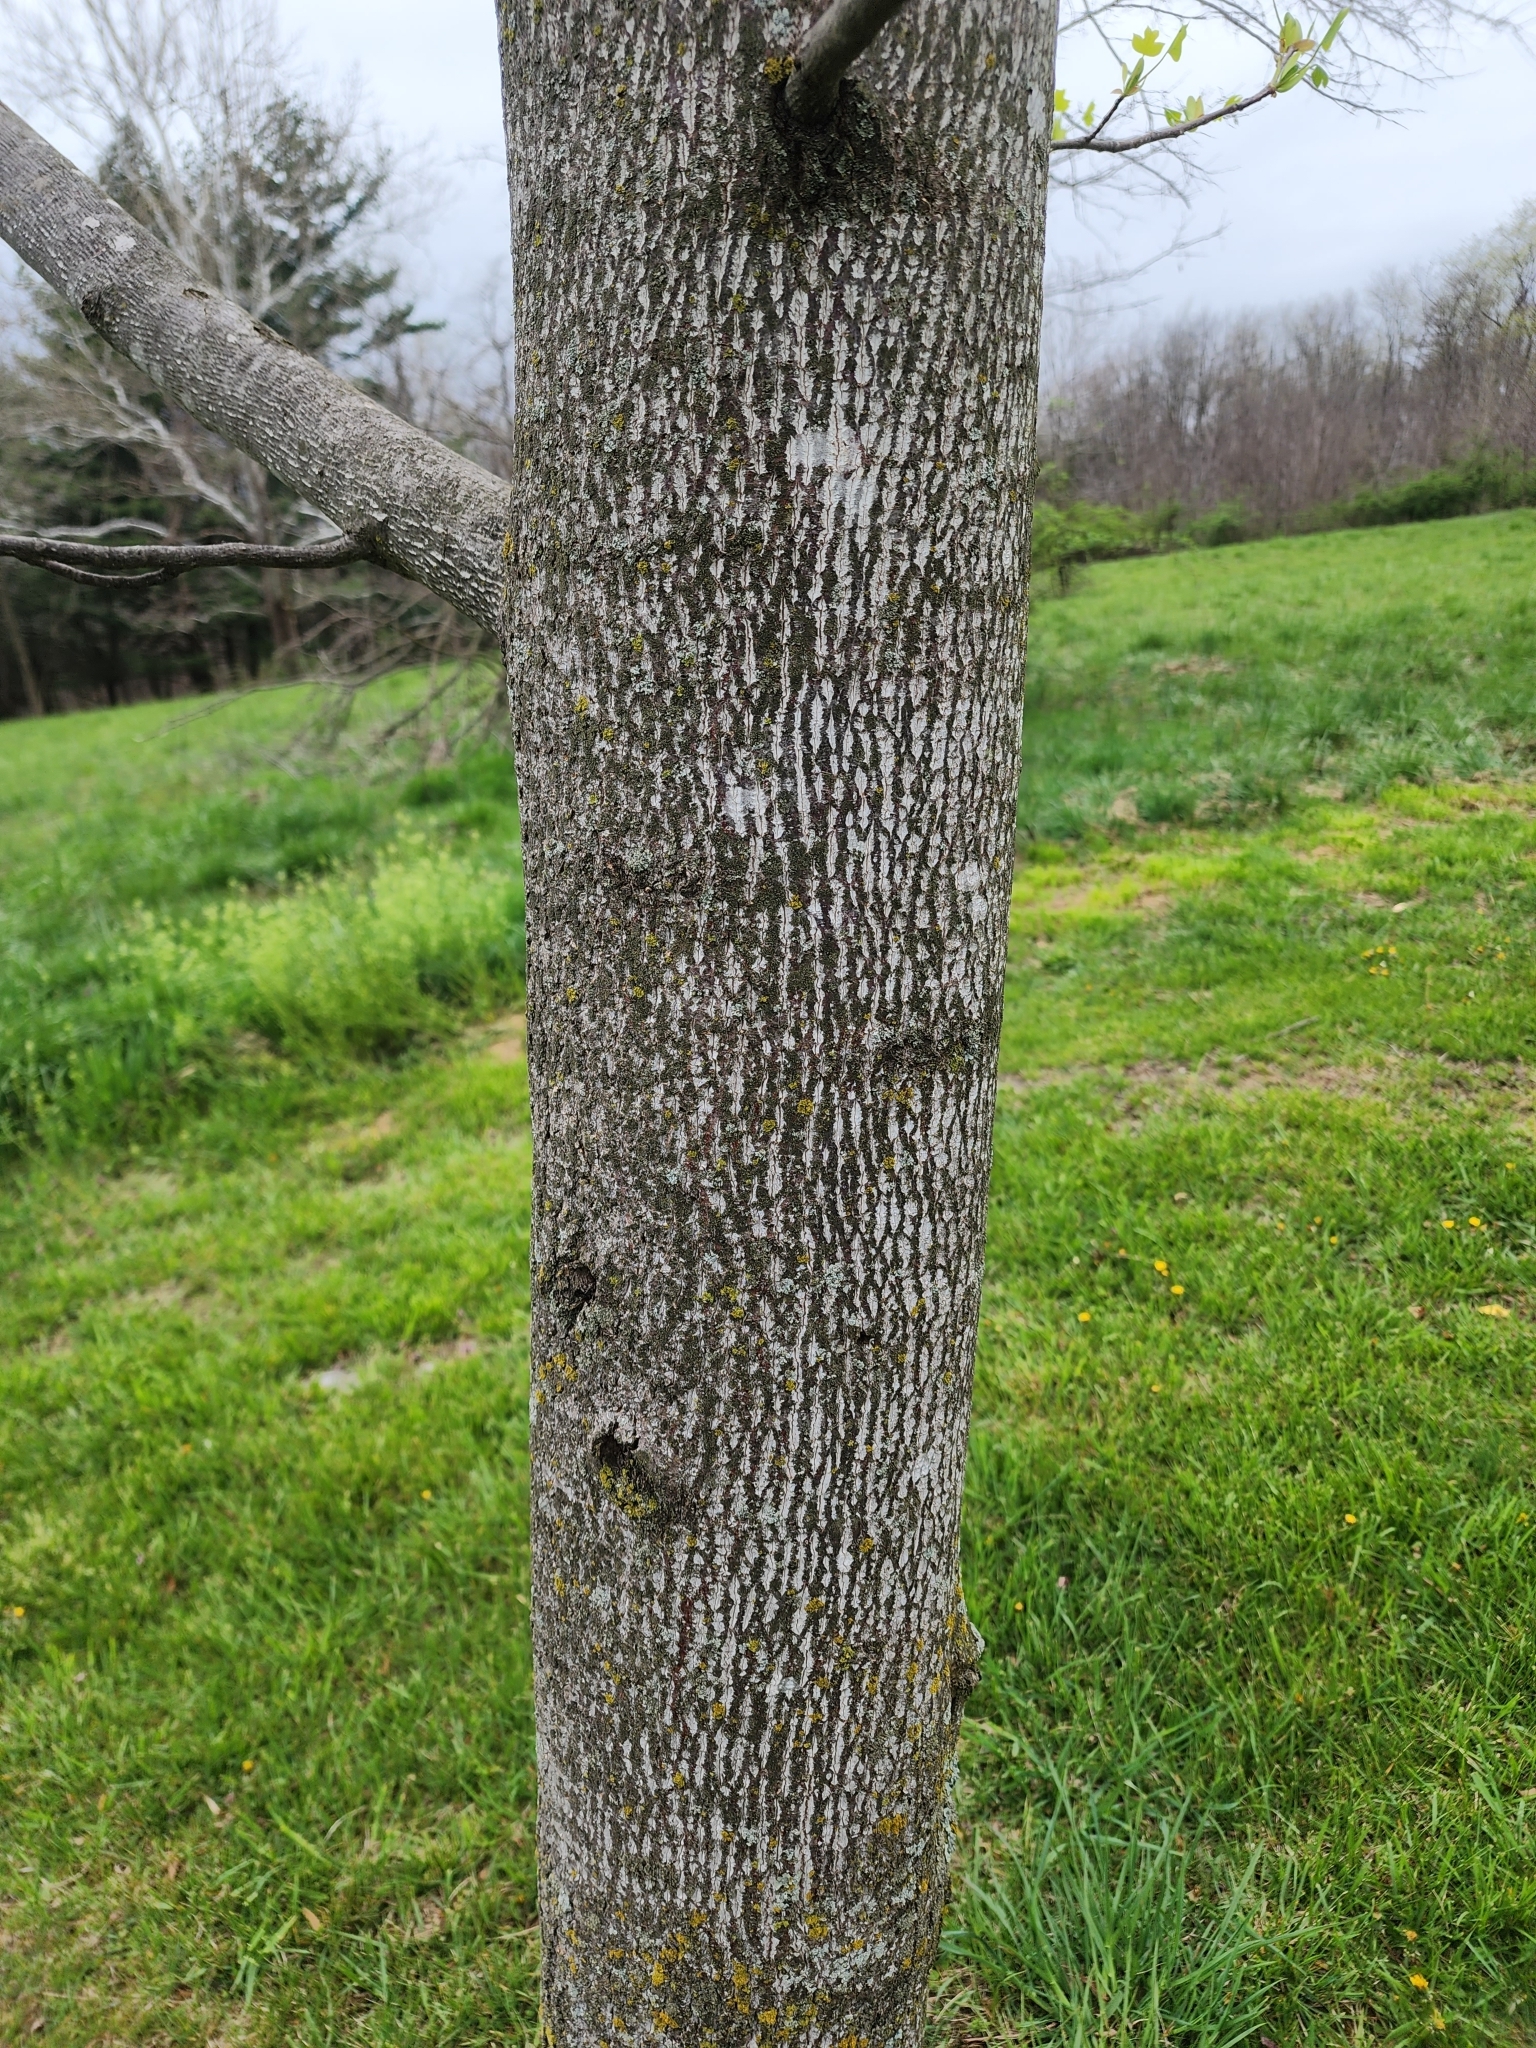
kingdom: Plantae
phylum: Tracheophyta
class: Magnoliopsida
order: Magnoliales
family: Magnoliaceae
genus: Liriodendron
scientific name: Liriodendron tulipifera
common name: Tulip tree
